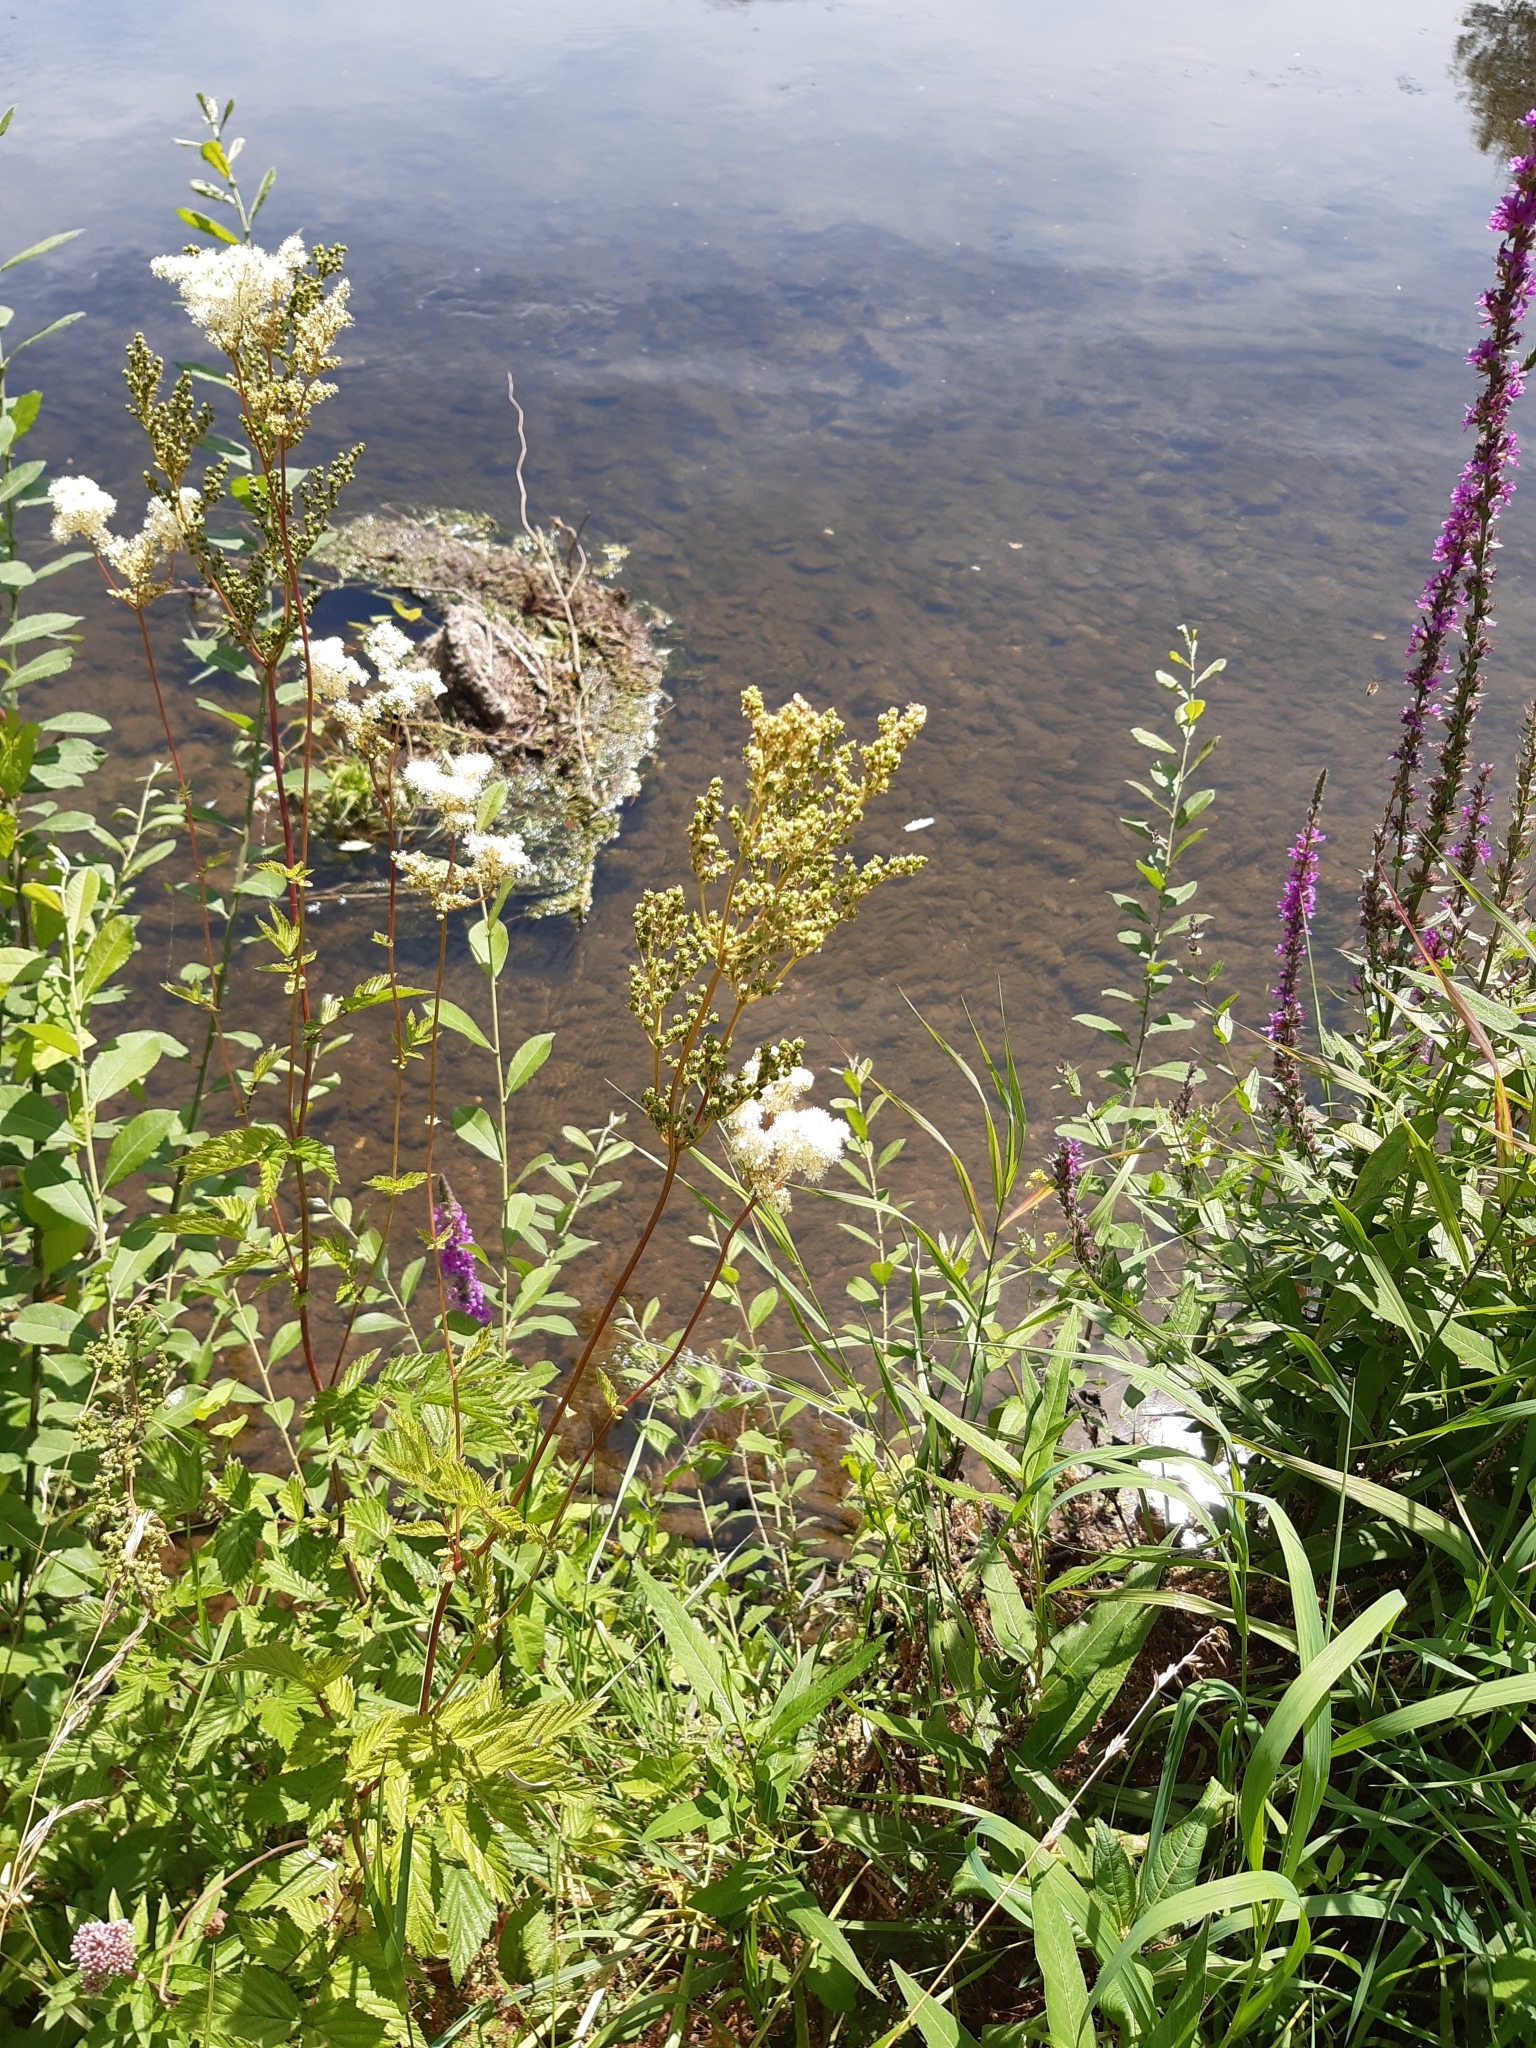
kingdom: Plantae
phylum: Tracheophyta
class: Magnoliopsida
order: Rosales
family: Rosaceae
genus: Filipendula
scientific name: Filipendula ulmaria
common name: Meadowsweet
